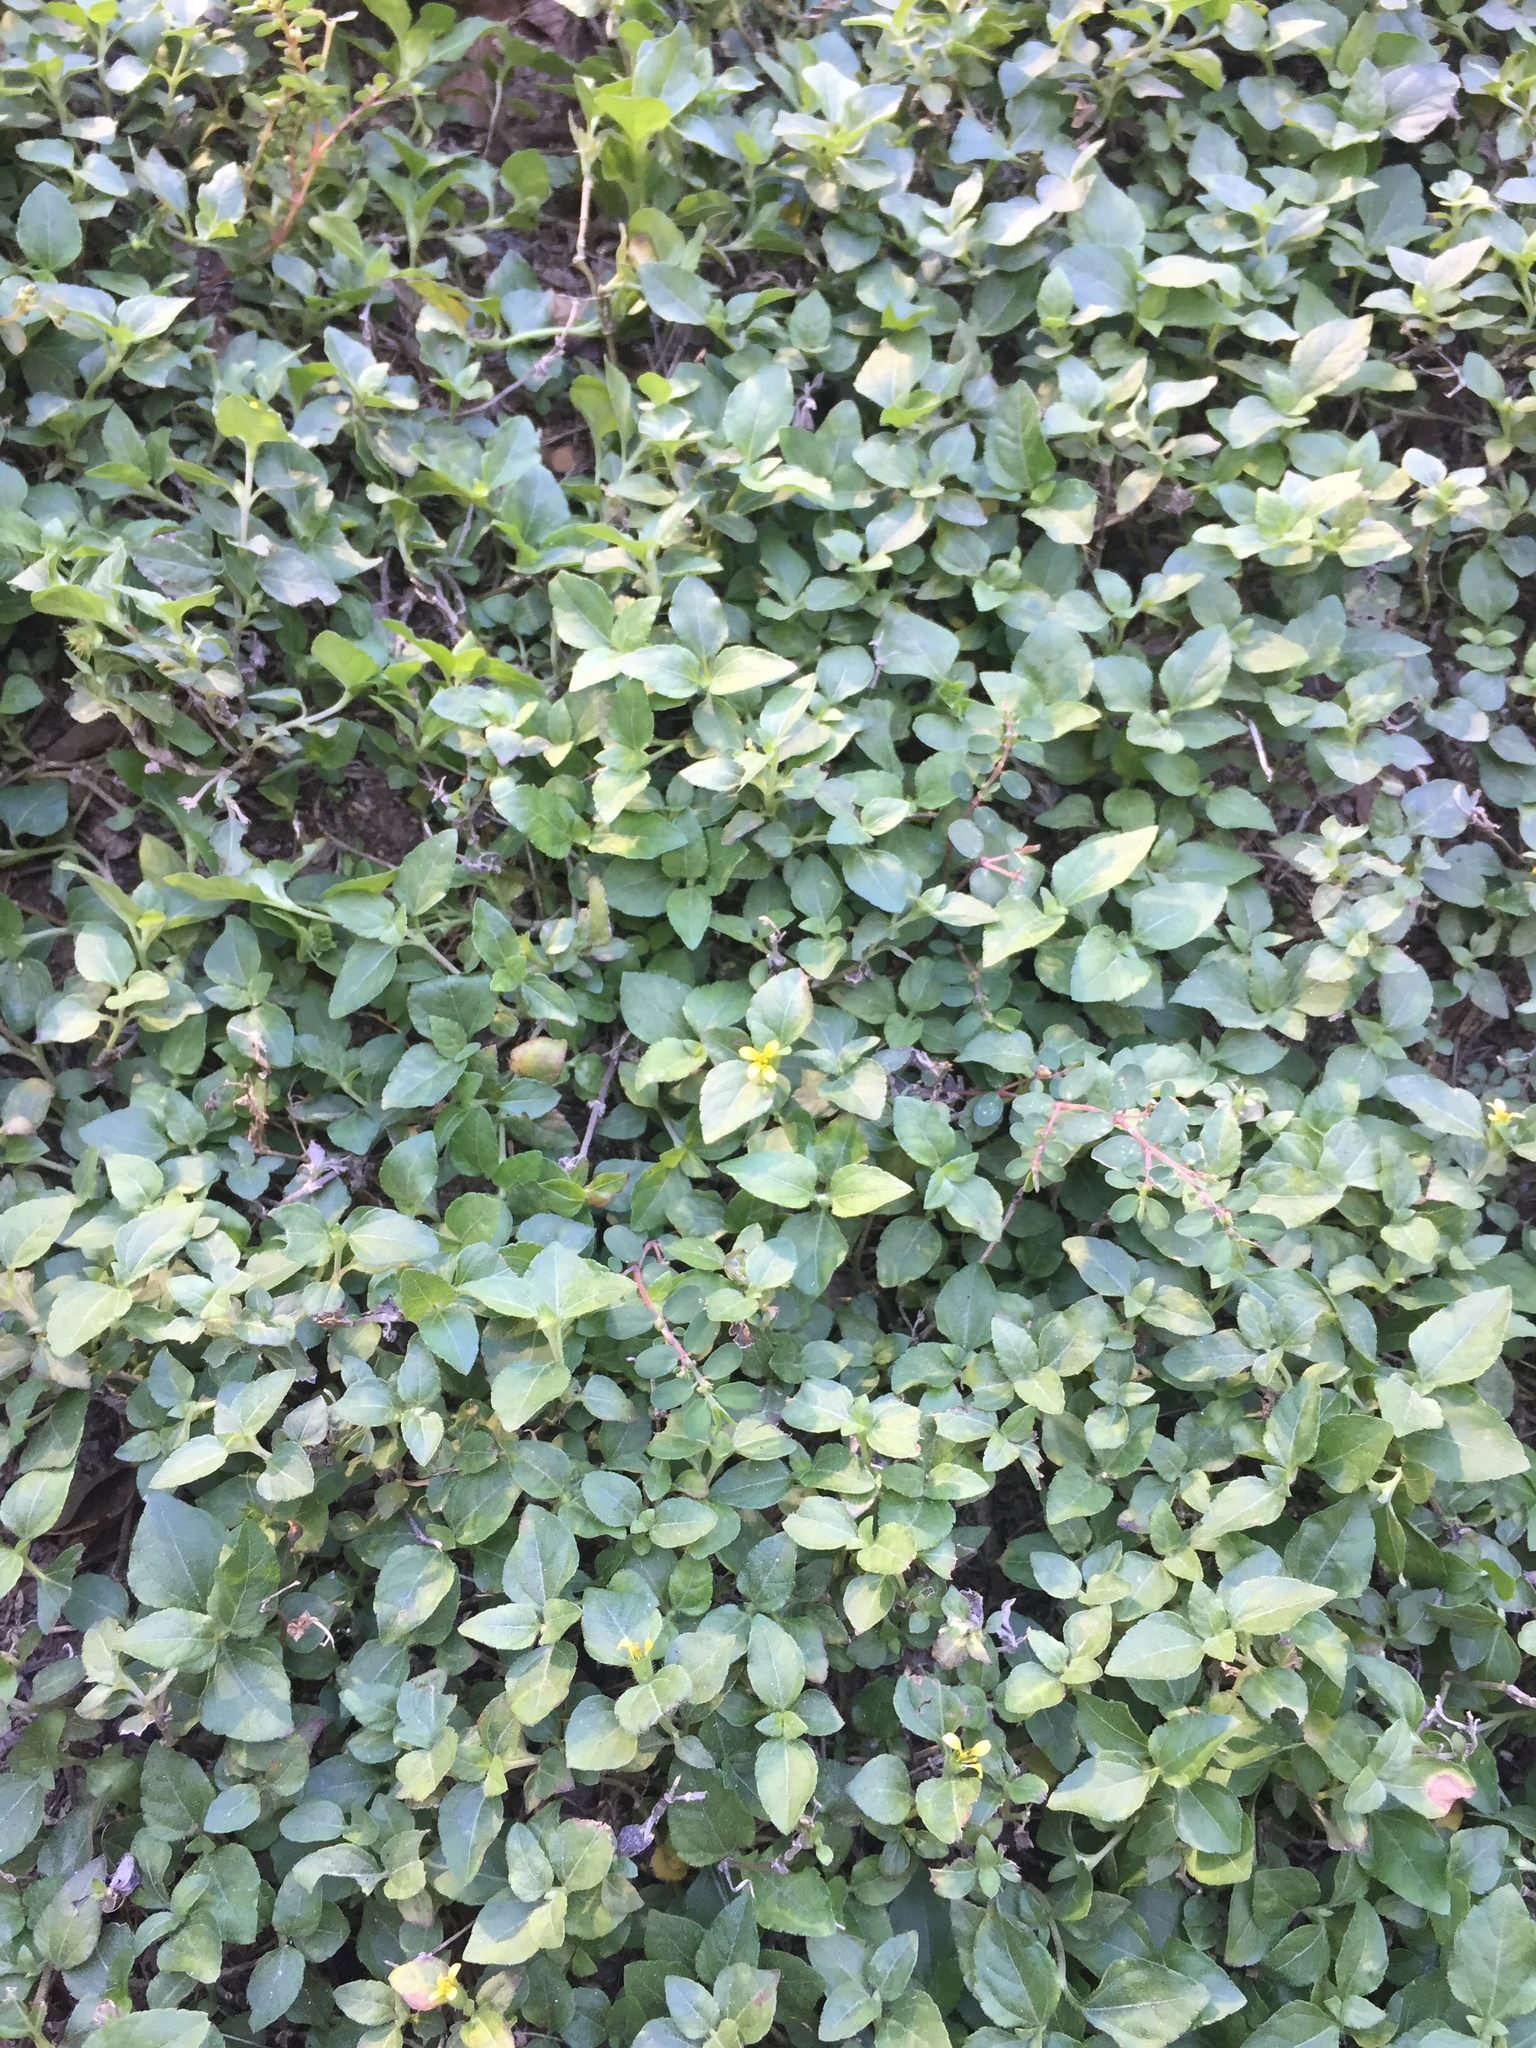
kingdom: Plantae
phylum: Tracheophyta
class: Magnoliopsida
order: Asterales
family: Asteraceae
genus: Calyptocarpus
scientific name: Calyptocarpus vialis
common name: Straggler daisy
